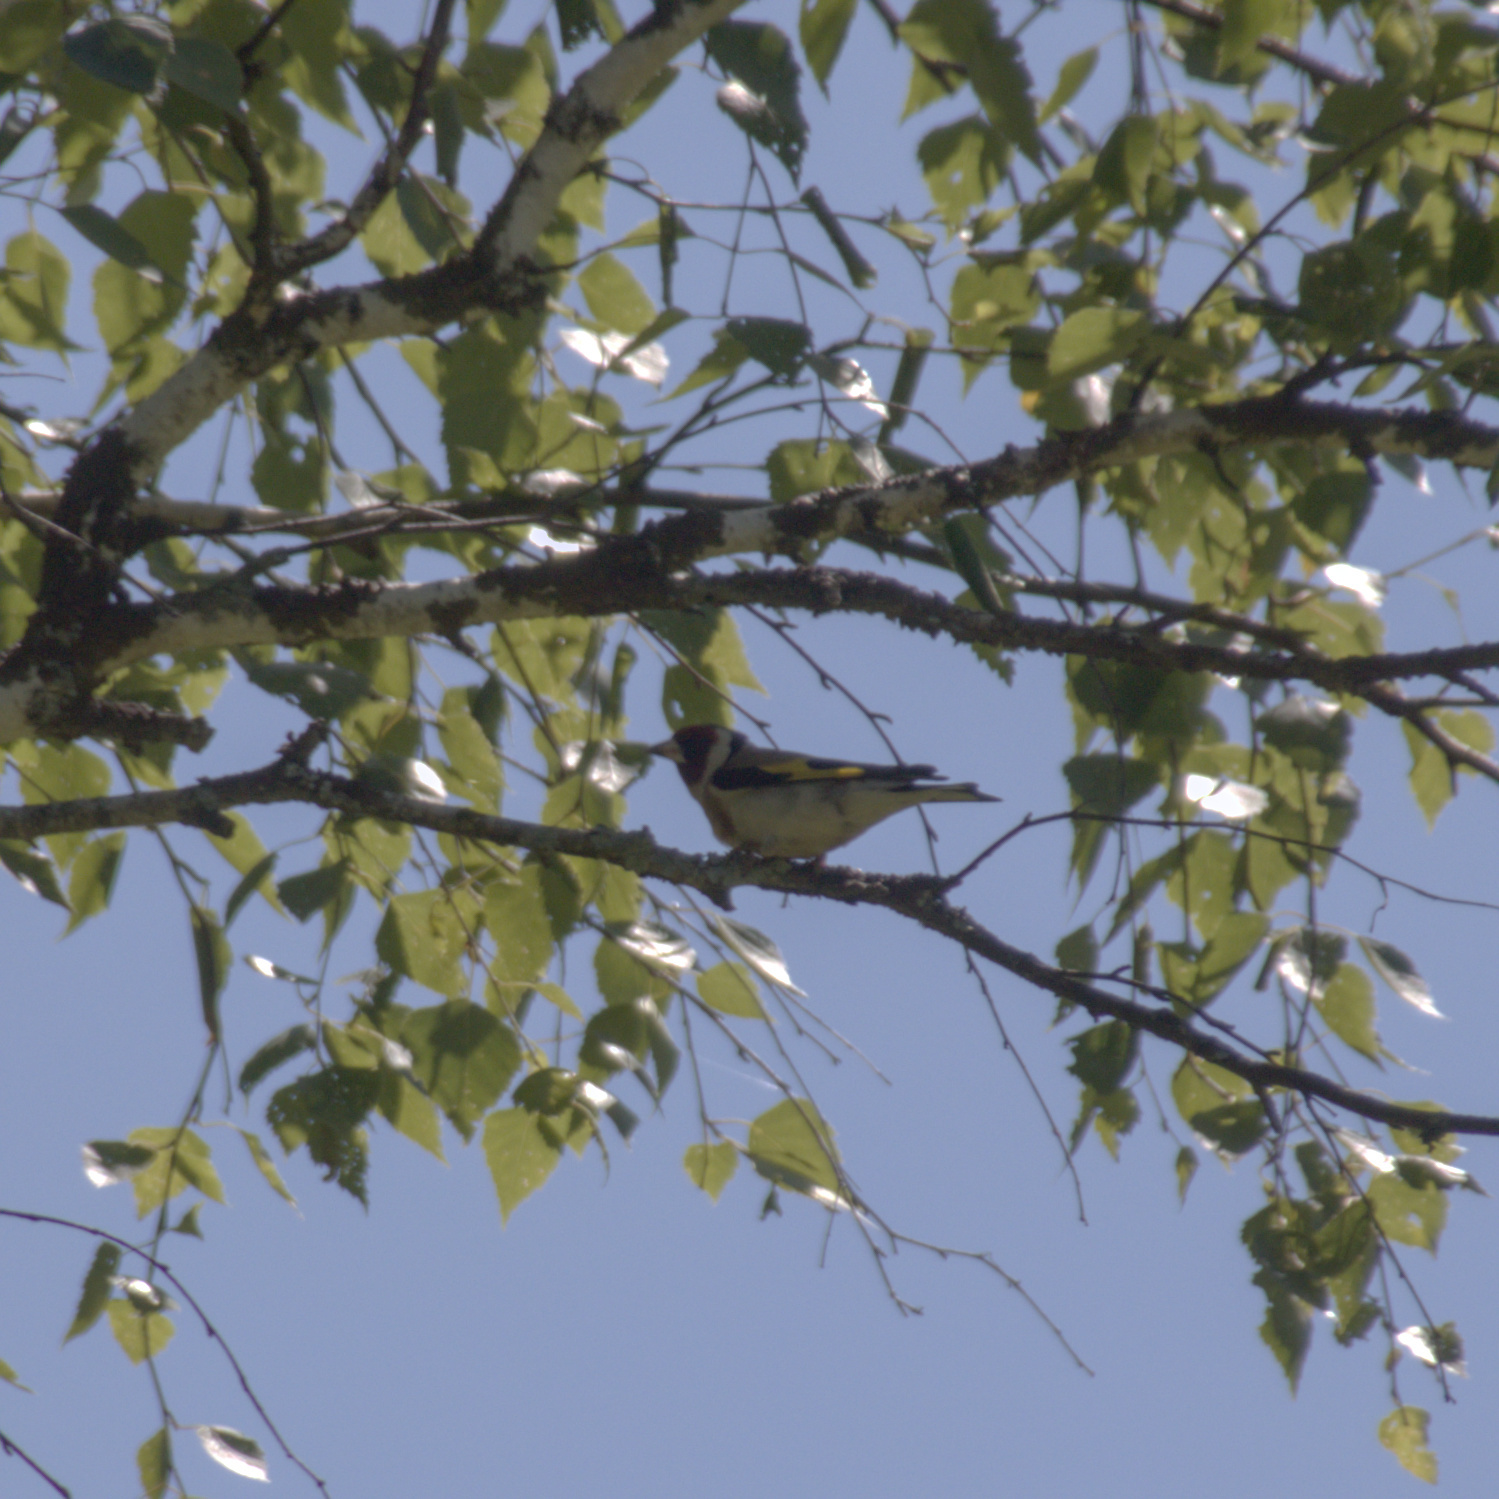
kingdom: Animalia
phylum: Chordata
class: Aves
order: Passeriformes
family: Fringillidae
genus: Carduelis
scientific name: Carduelis carduelis
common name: European goldfinch
